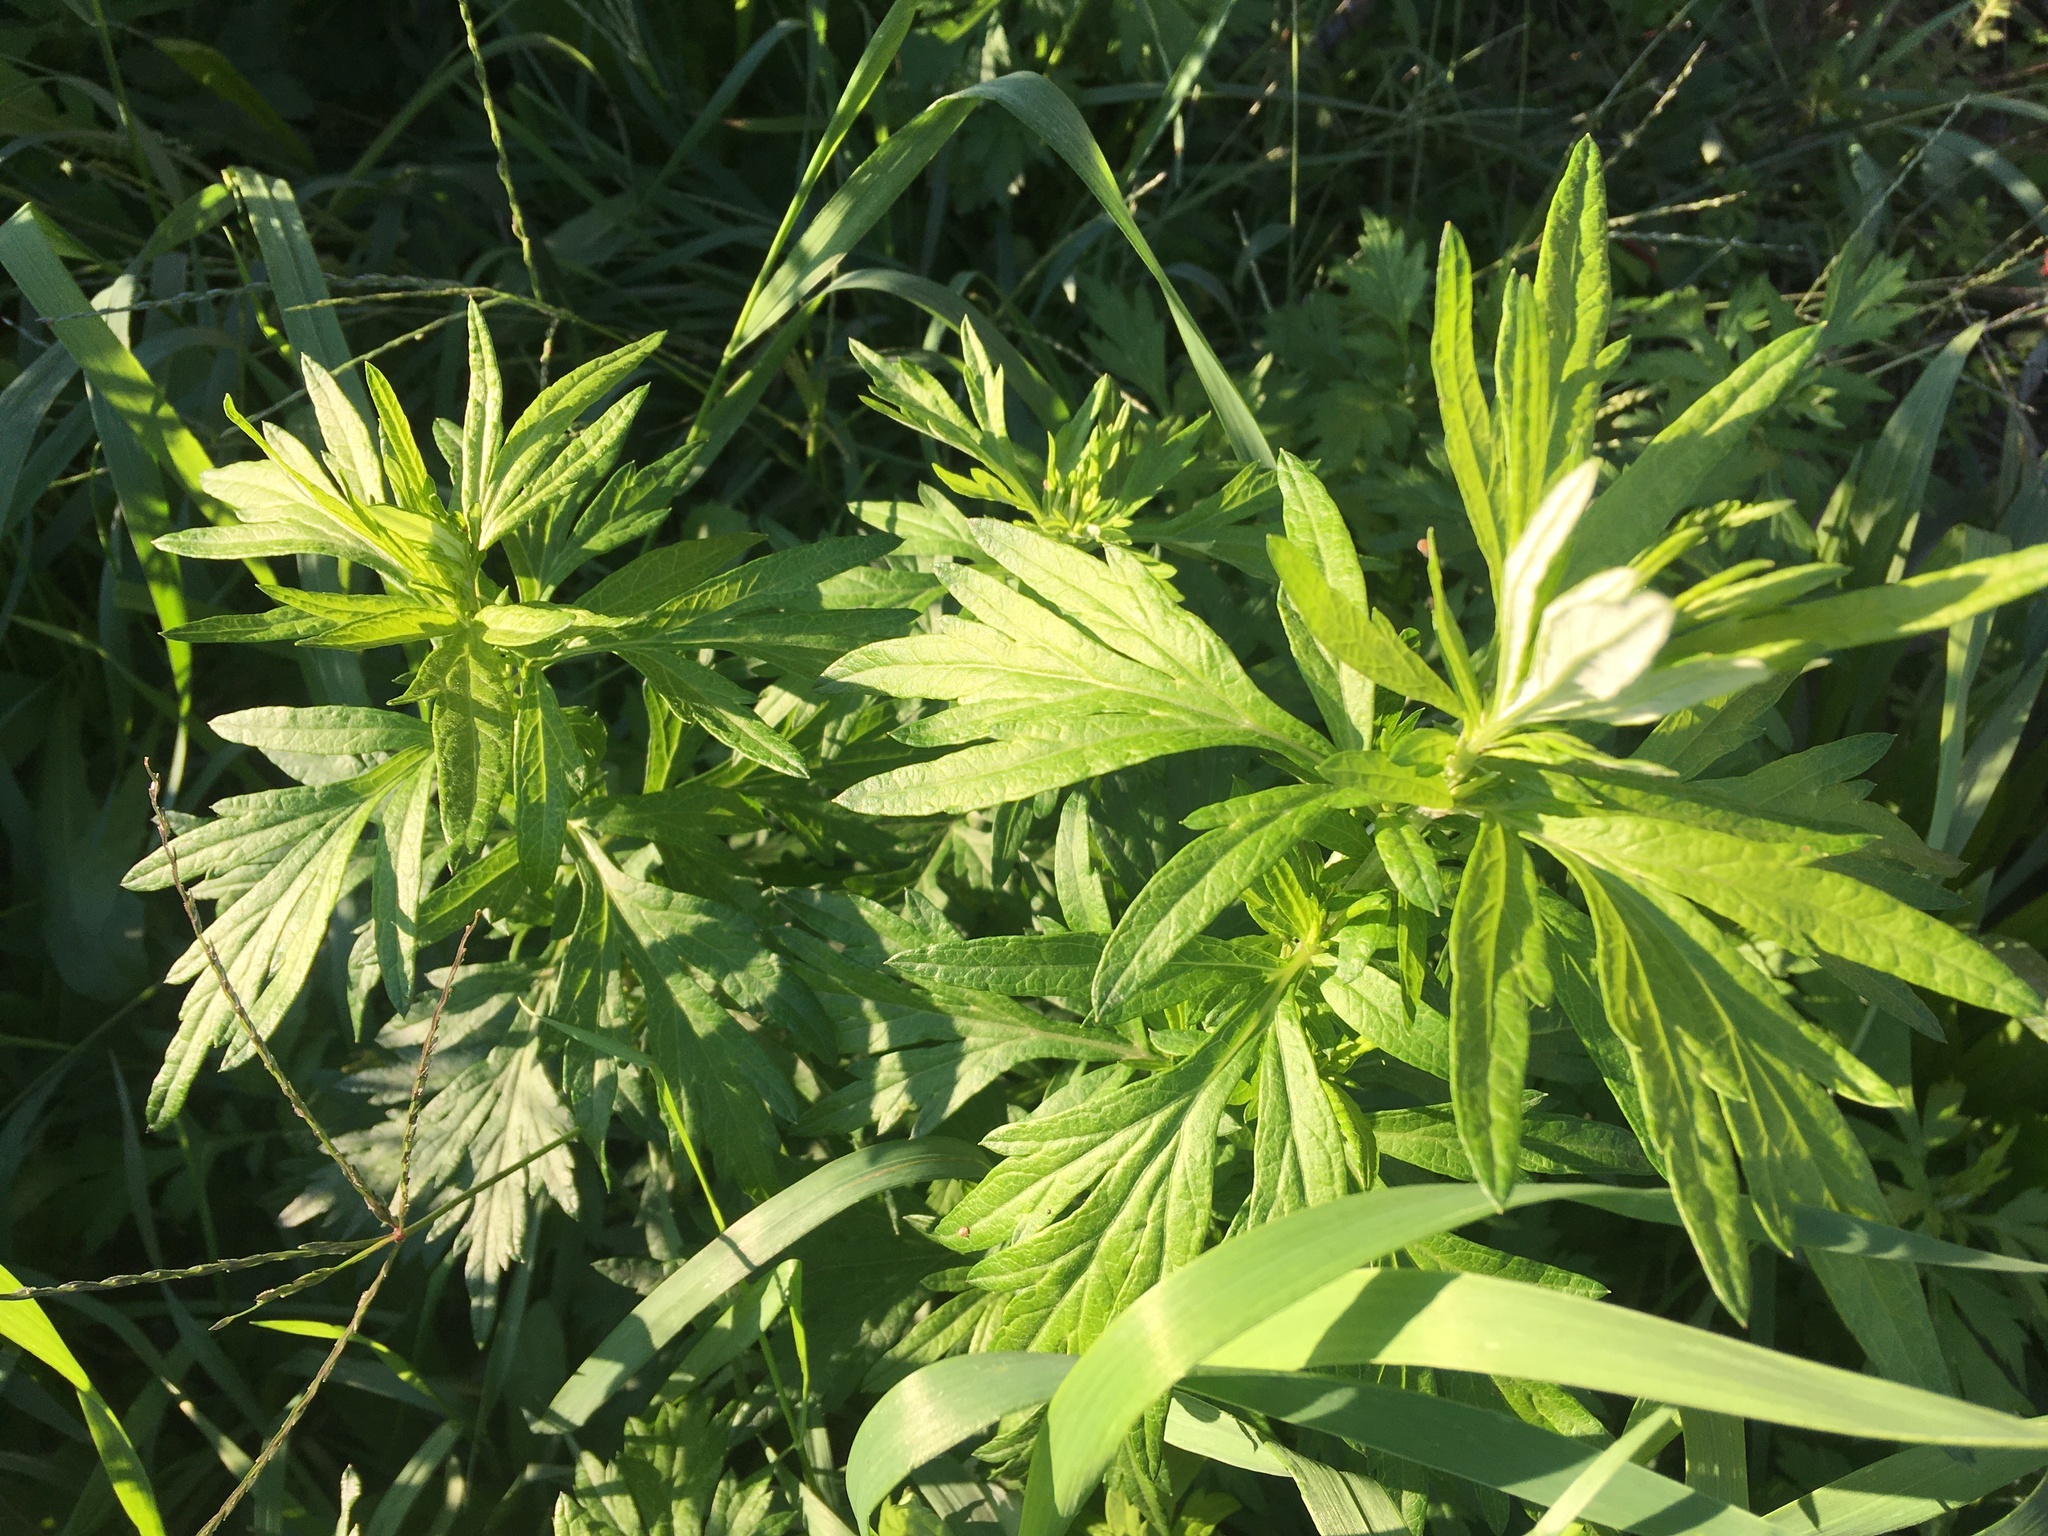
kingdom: Plantae
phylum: Tracheophyta
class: Magnoliopsida
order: Asterales
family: Asteraceae
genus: Artemisia
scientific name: Artemisia vulgaris
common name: Mugwort
